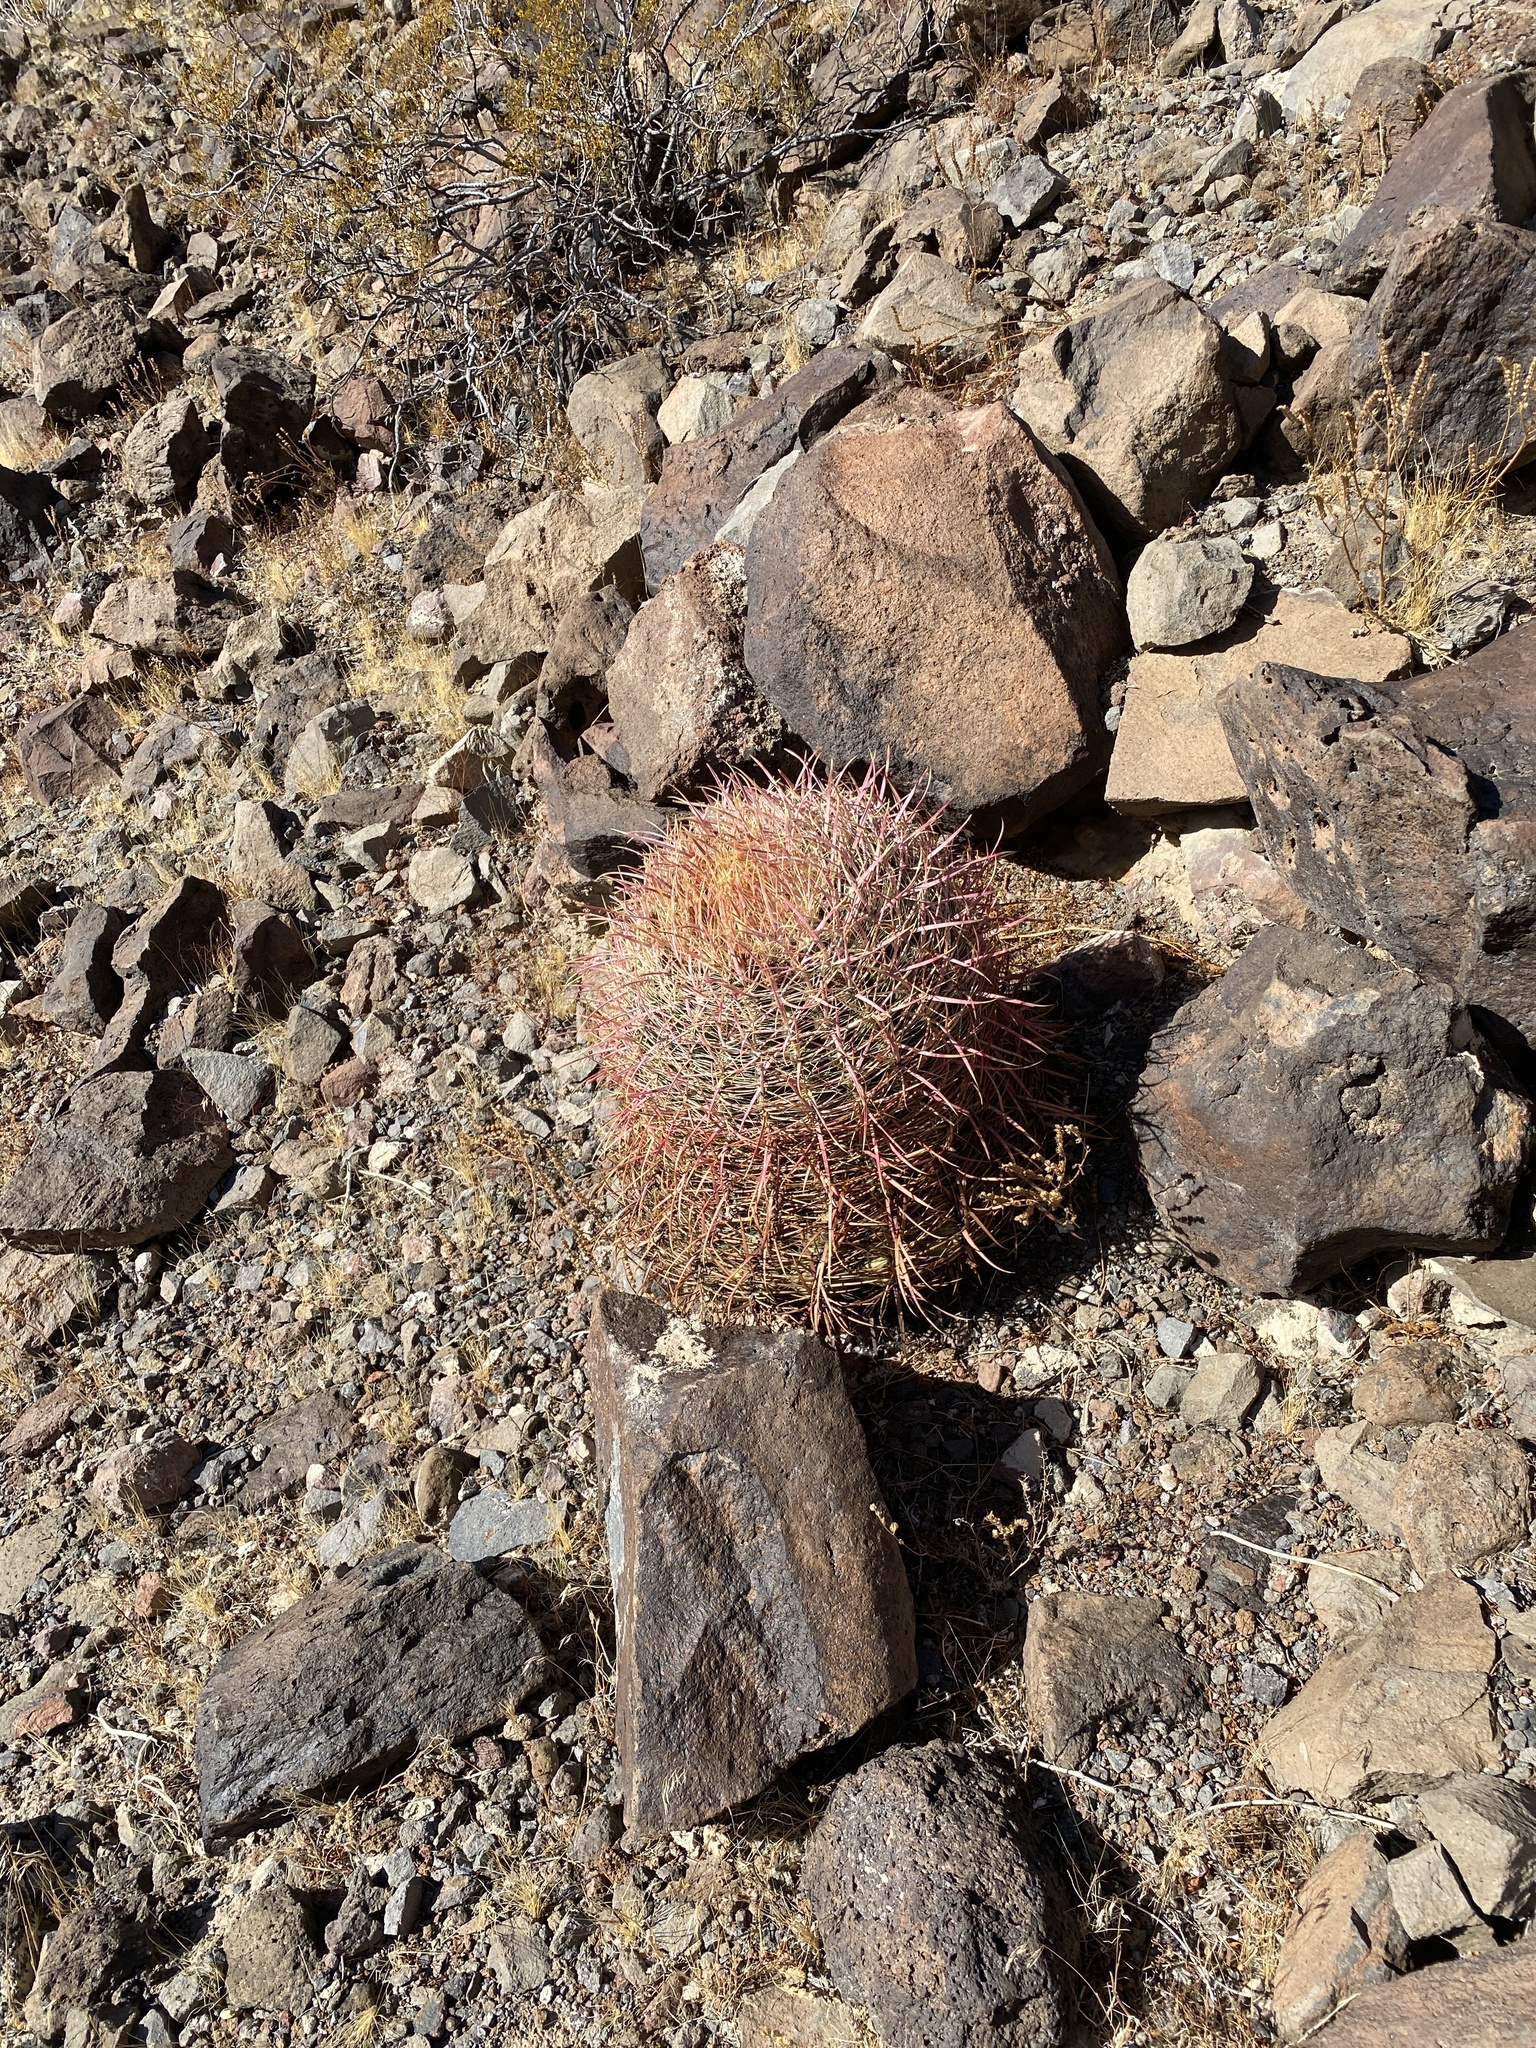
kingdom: Plantae
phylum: Tracheophyta
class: Magnoliopsida
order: Caryophyllales
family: Cactaceae
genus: Ferocactus
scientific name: Ferocactus cylindraceus
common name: California barrel cactus
